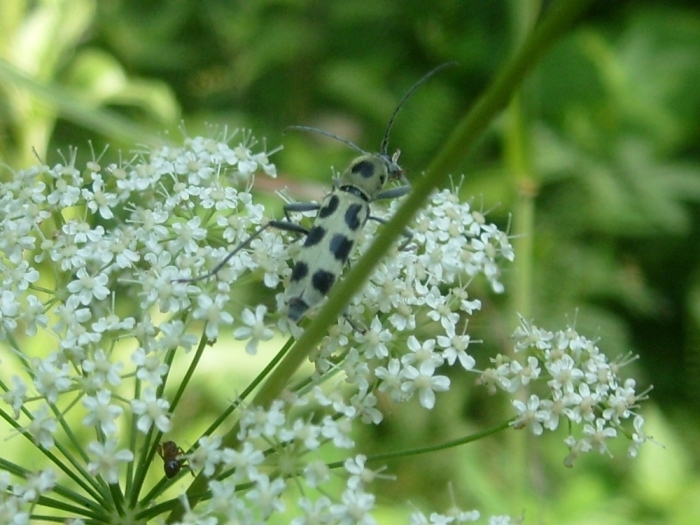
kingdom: Animalia
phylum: Arthropoda
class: Insecta
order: Coleoptera
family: Cerambycidae
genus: Chlorophorus
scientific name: Chlorophorus herbstii
